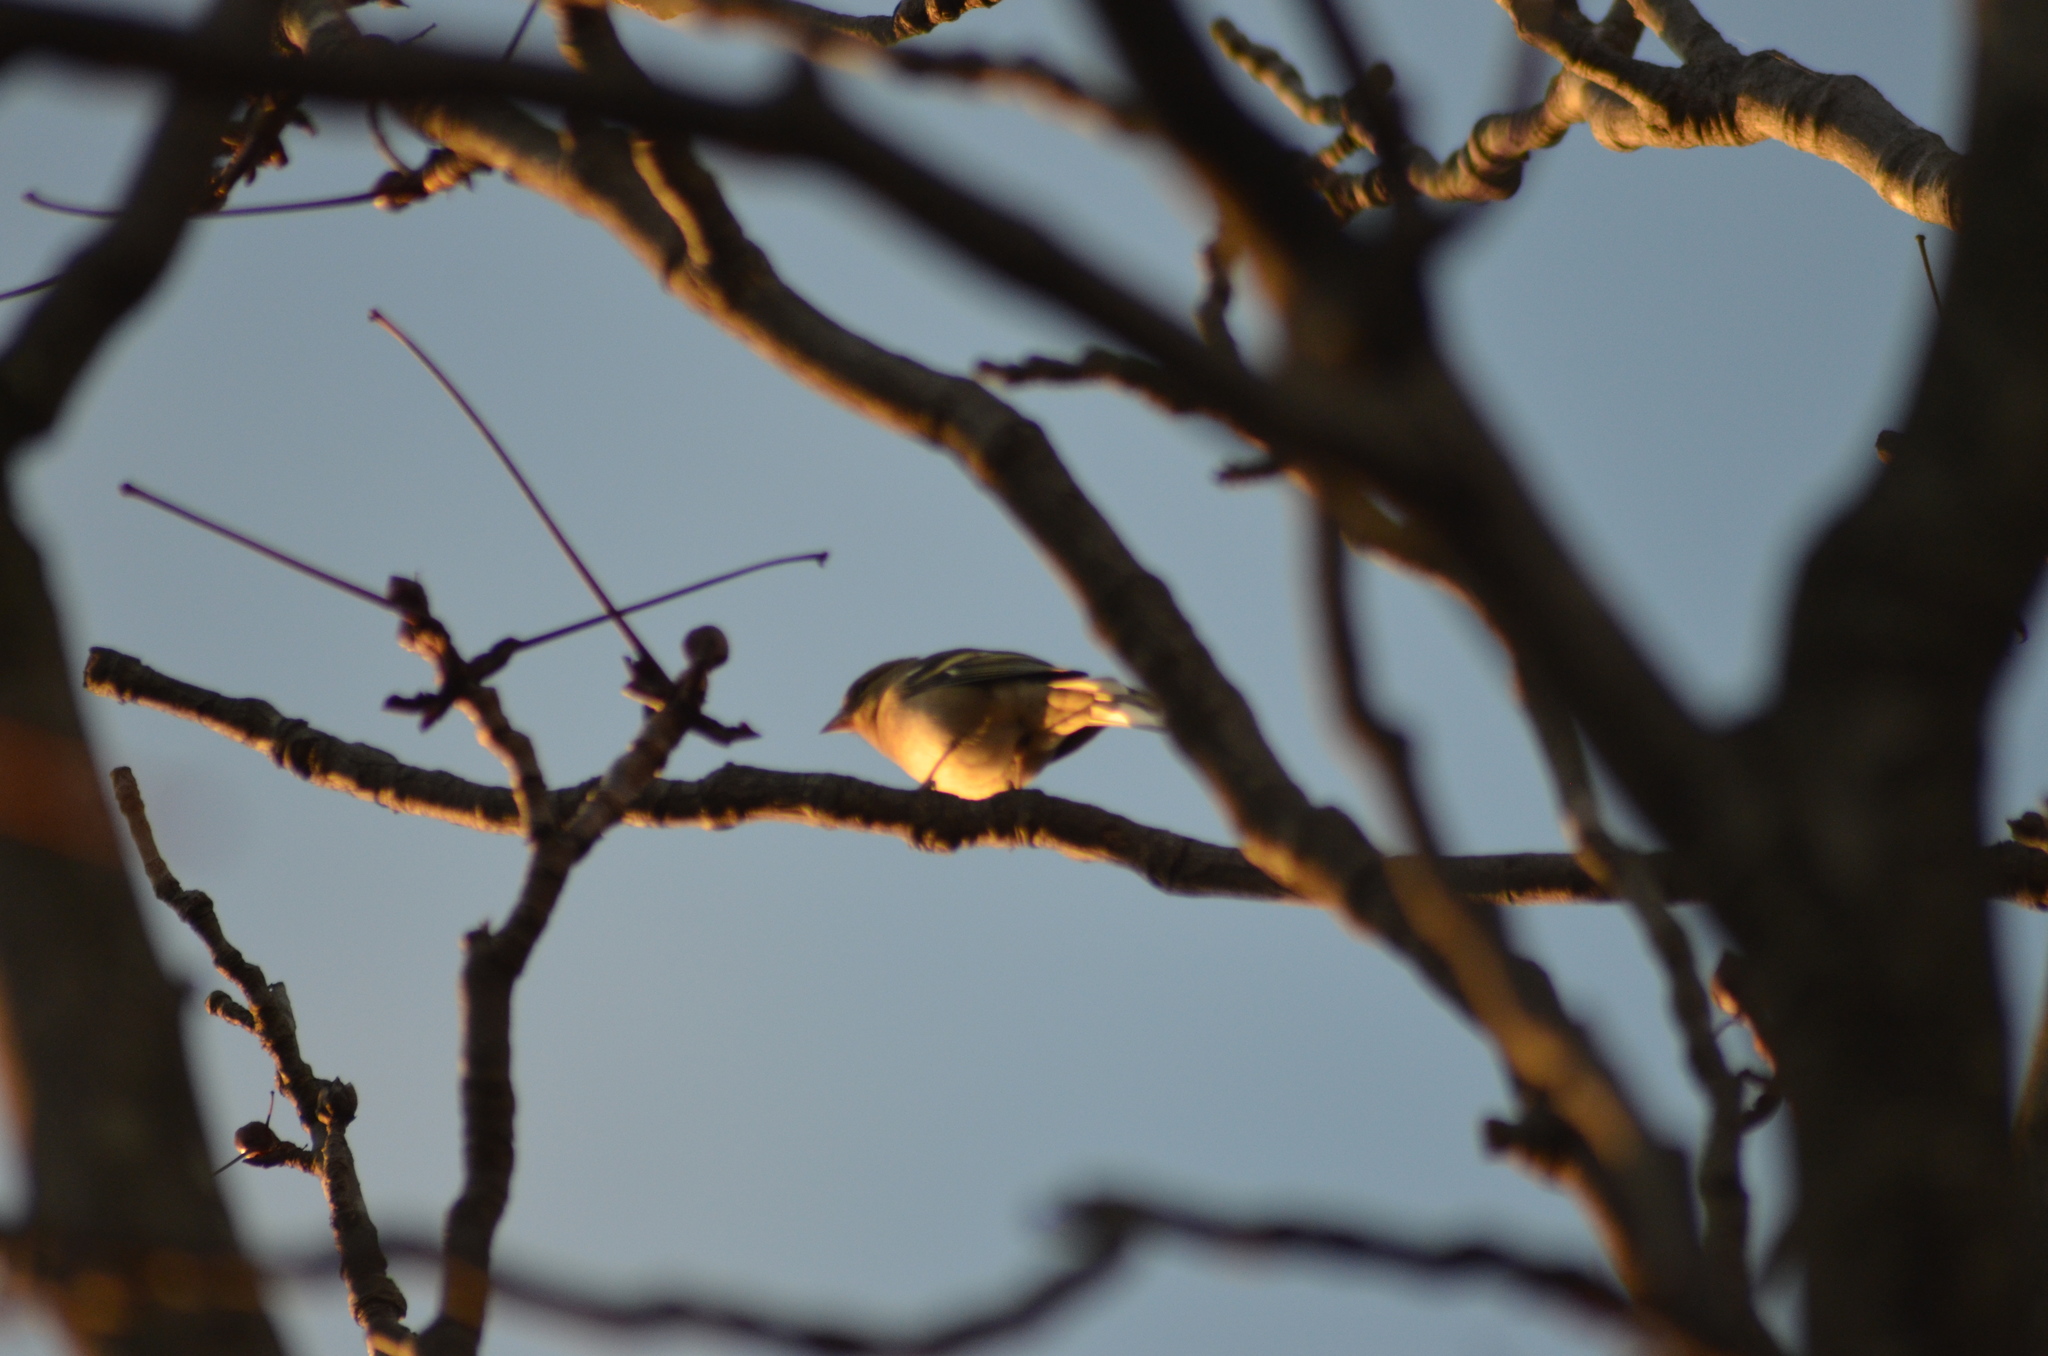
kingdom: Animalia
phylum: Chordata
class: Aves
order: Passeriformes
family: Fringillidae
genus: Fringilla
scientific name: Fringilla coelebs
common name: Common chaffinch
